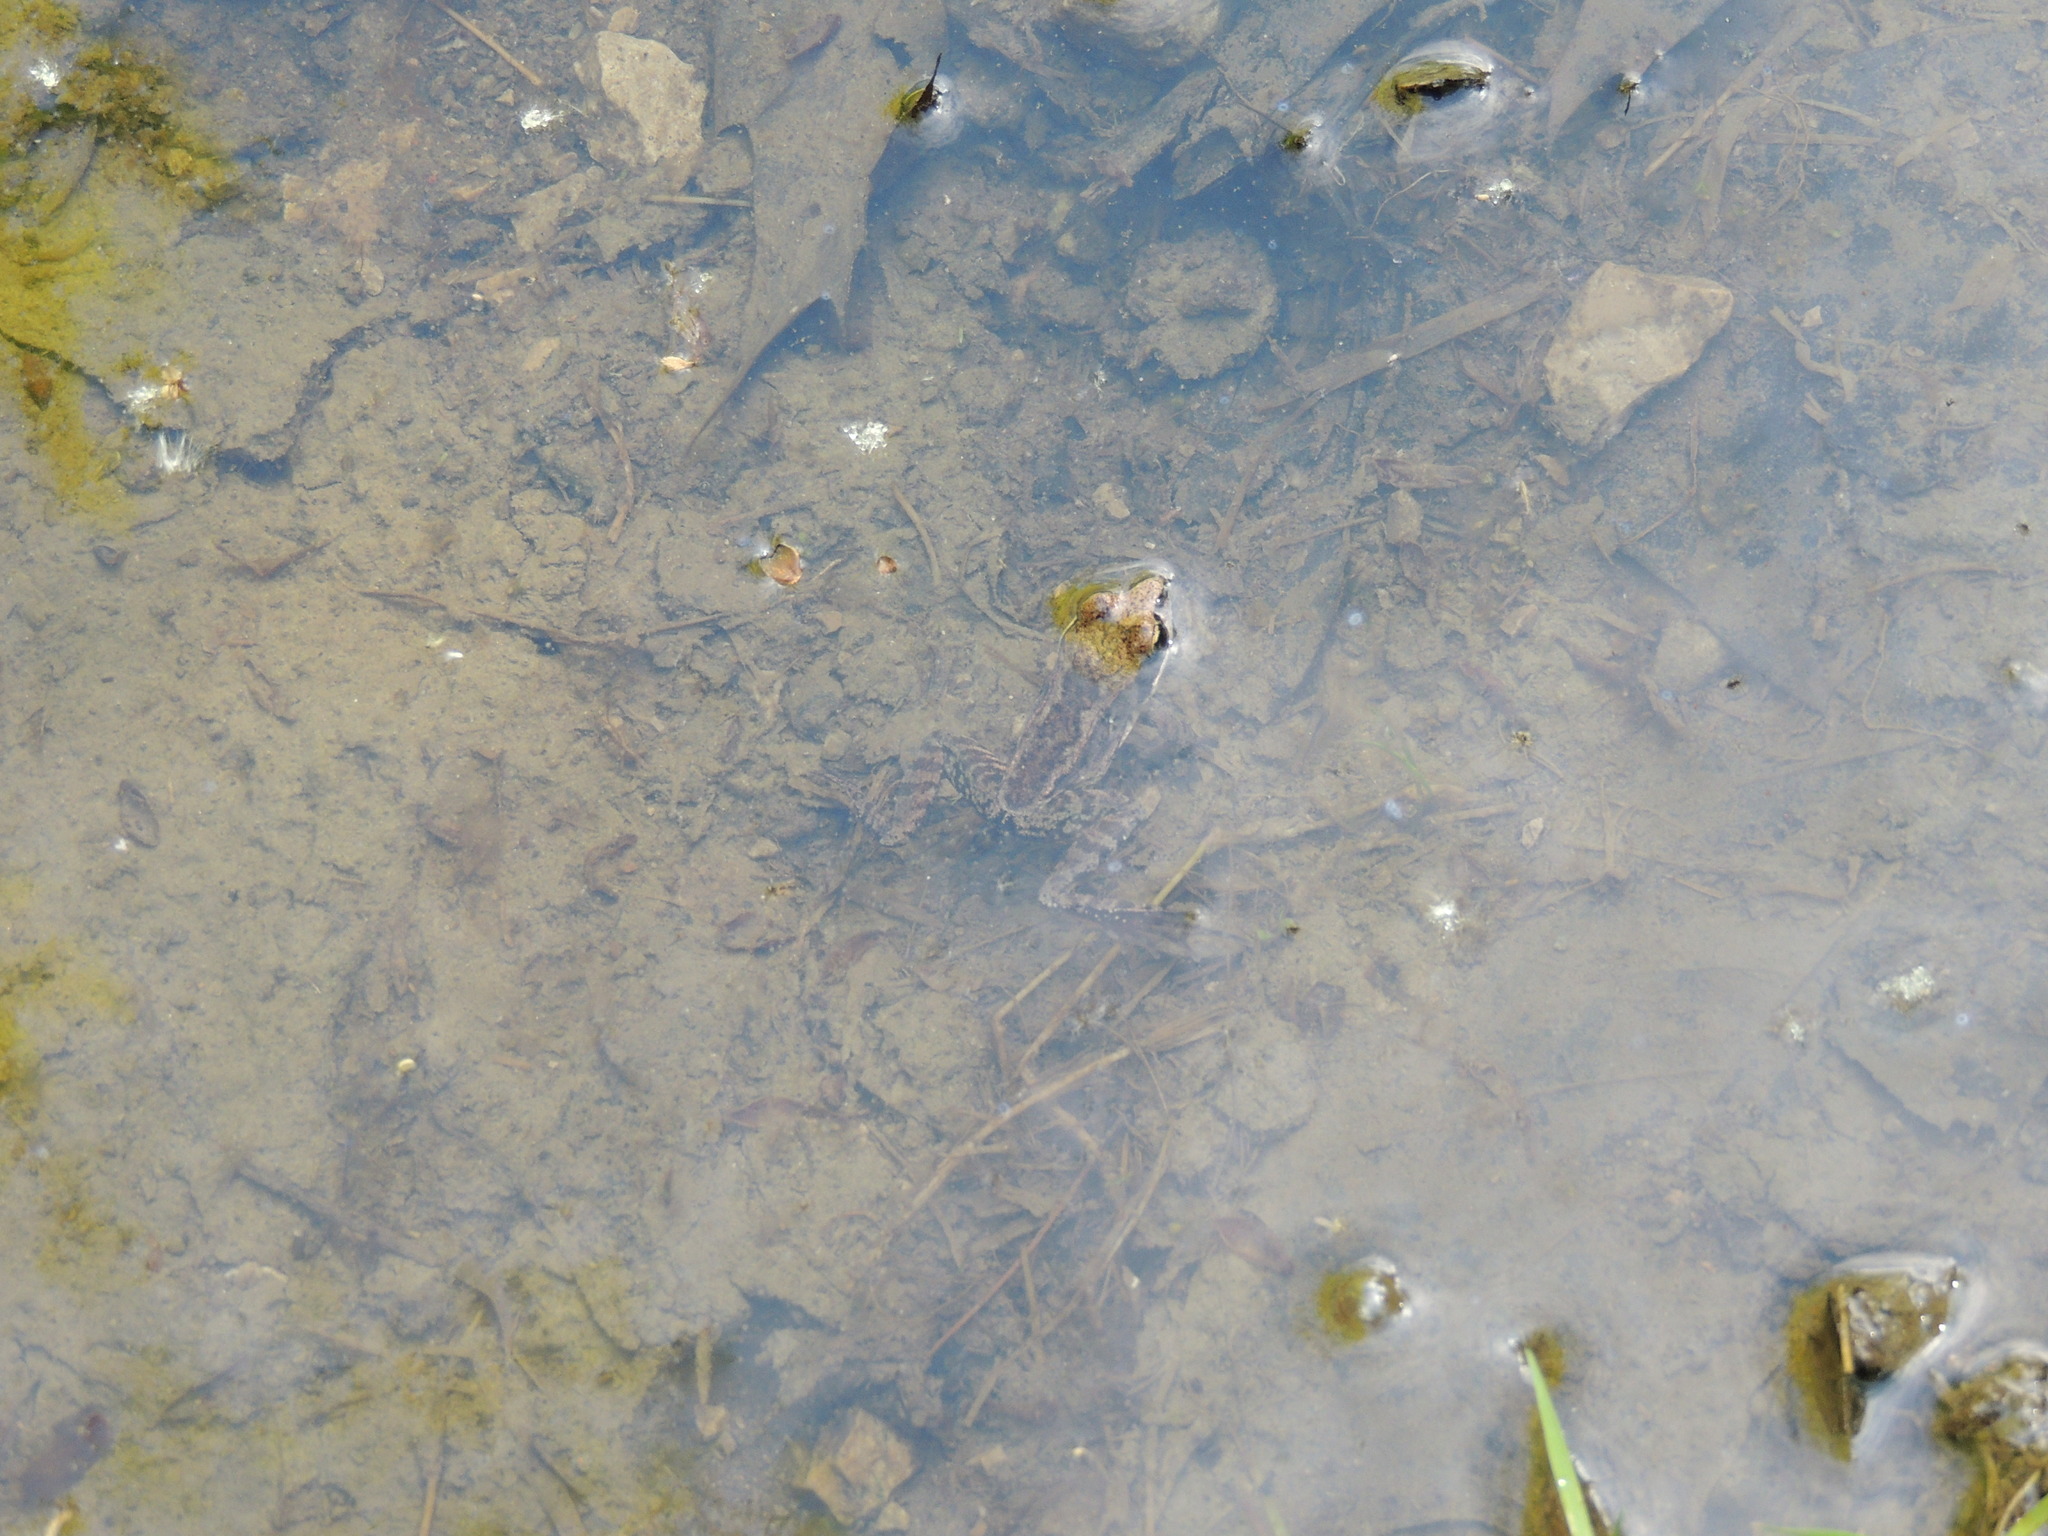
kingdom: Animalia
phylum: Chordata
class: Amphibia
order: Anura
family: Ranidae
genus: Lithobates
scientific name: Lithobates sylvaticus
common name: Wood frog
